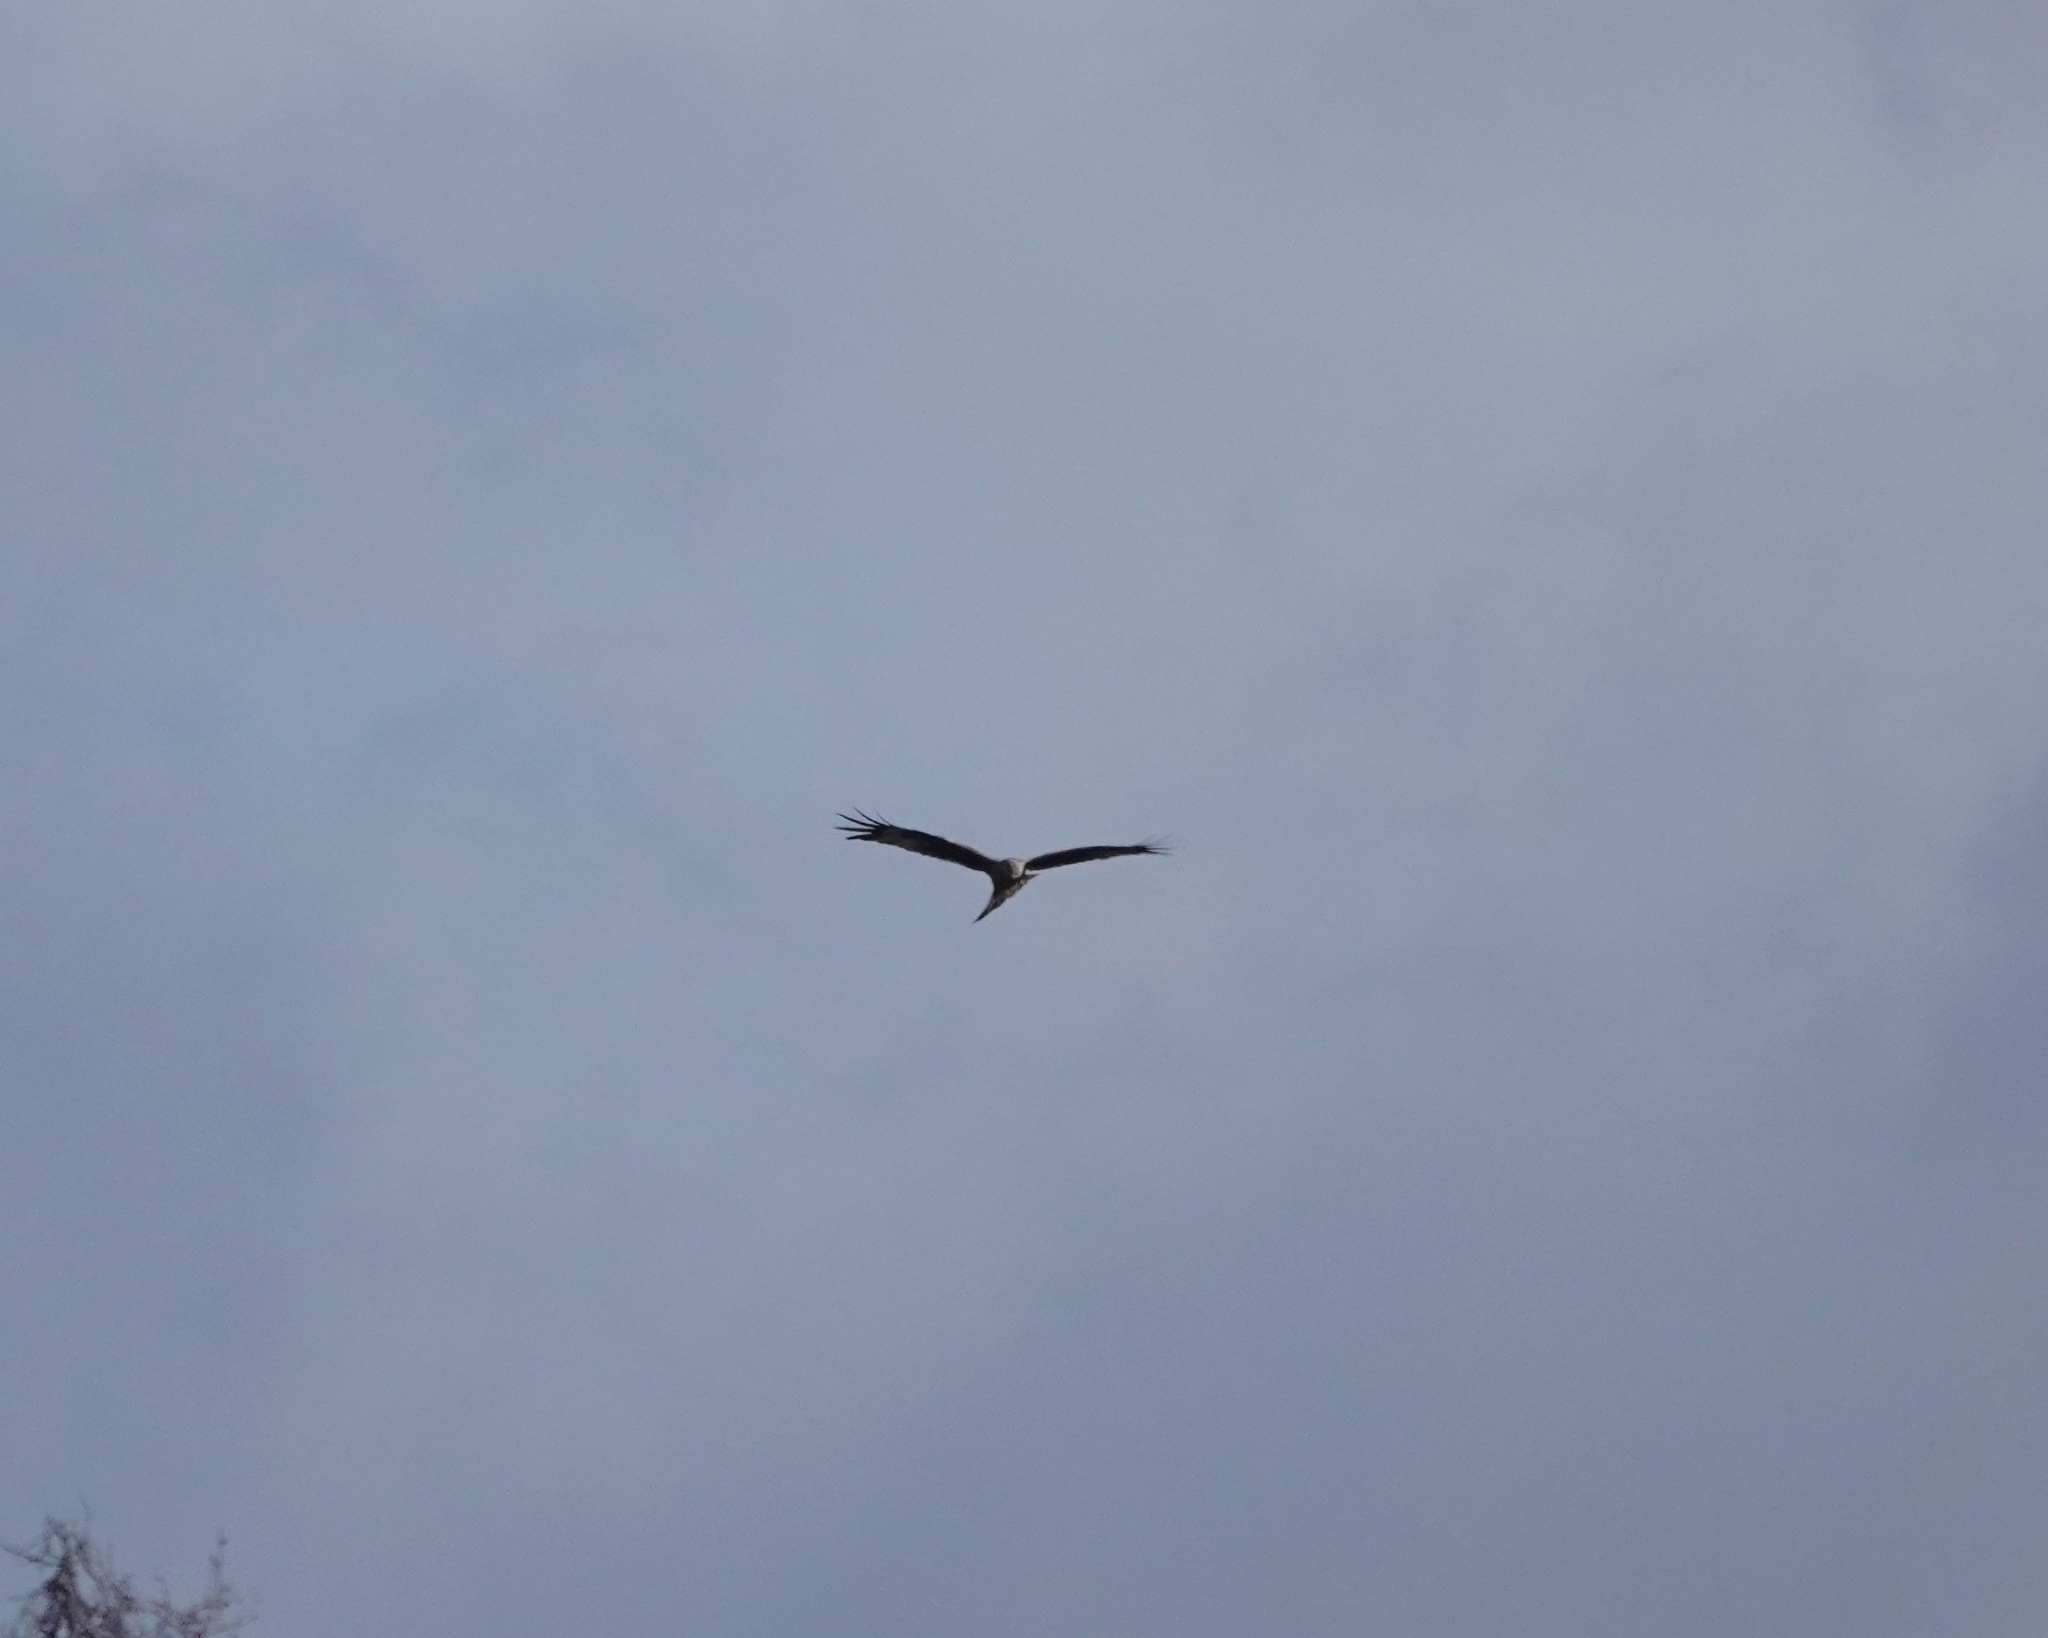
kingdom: Animalia
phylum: Chordata
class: Aves
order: Accipitriformes
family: Accipitridae
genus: Milvus
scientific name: Milvus milvus
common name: Red kite
